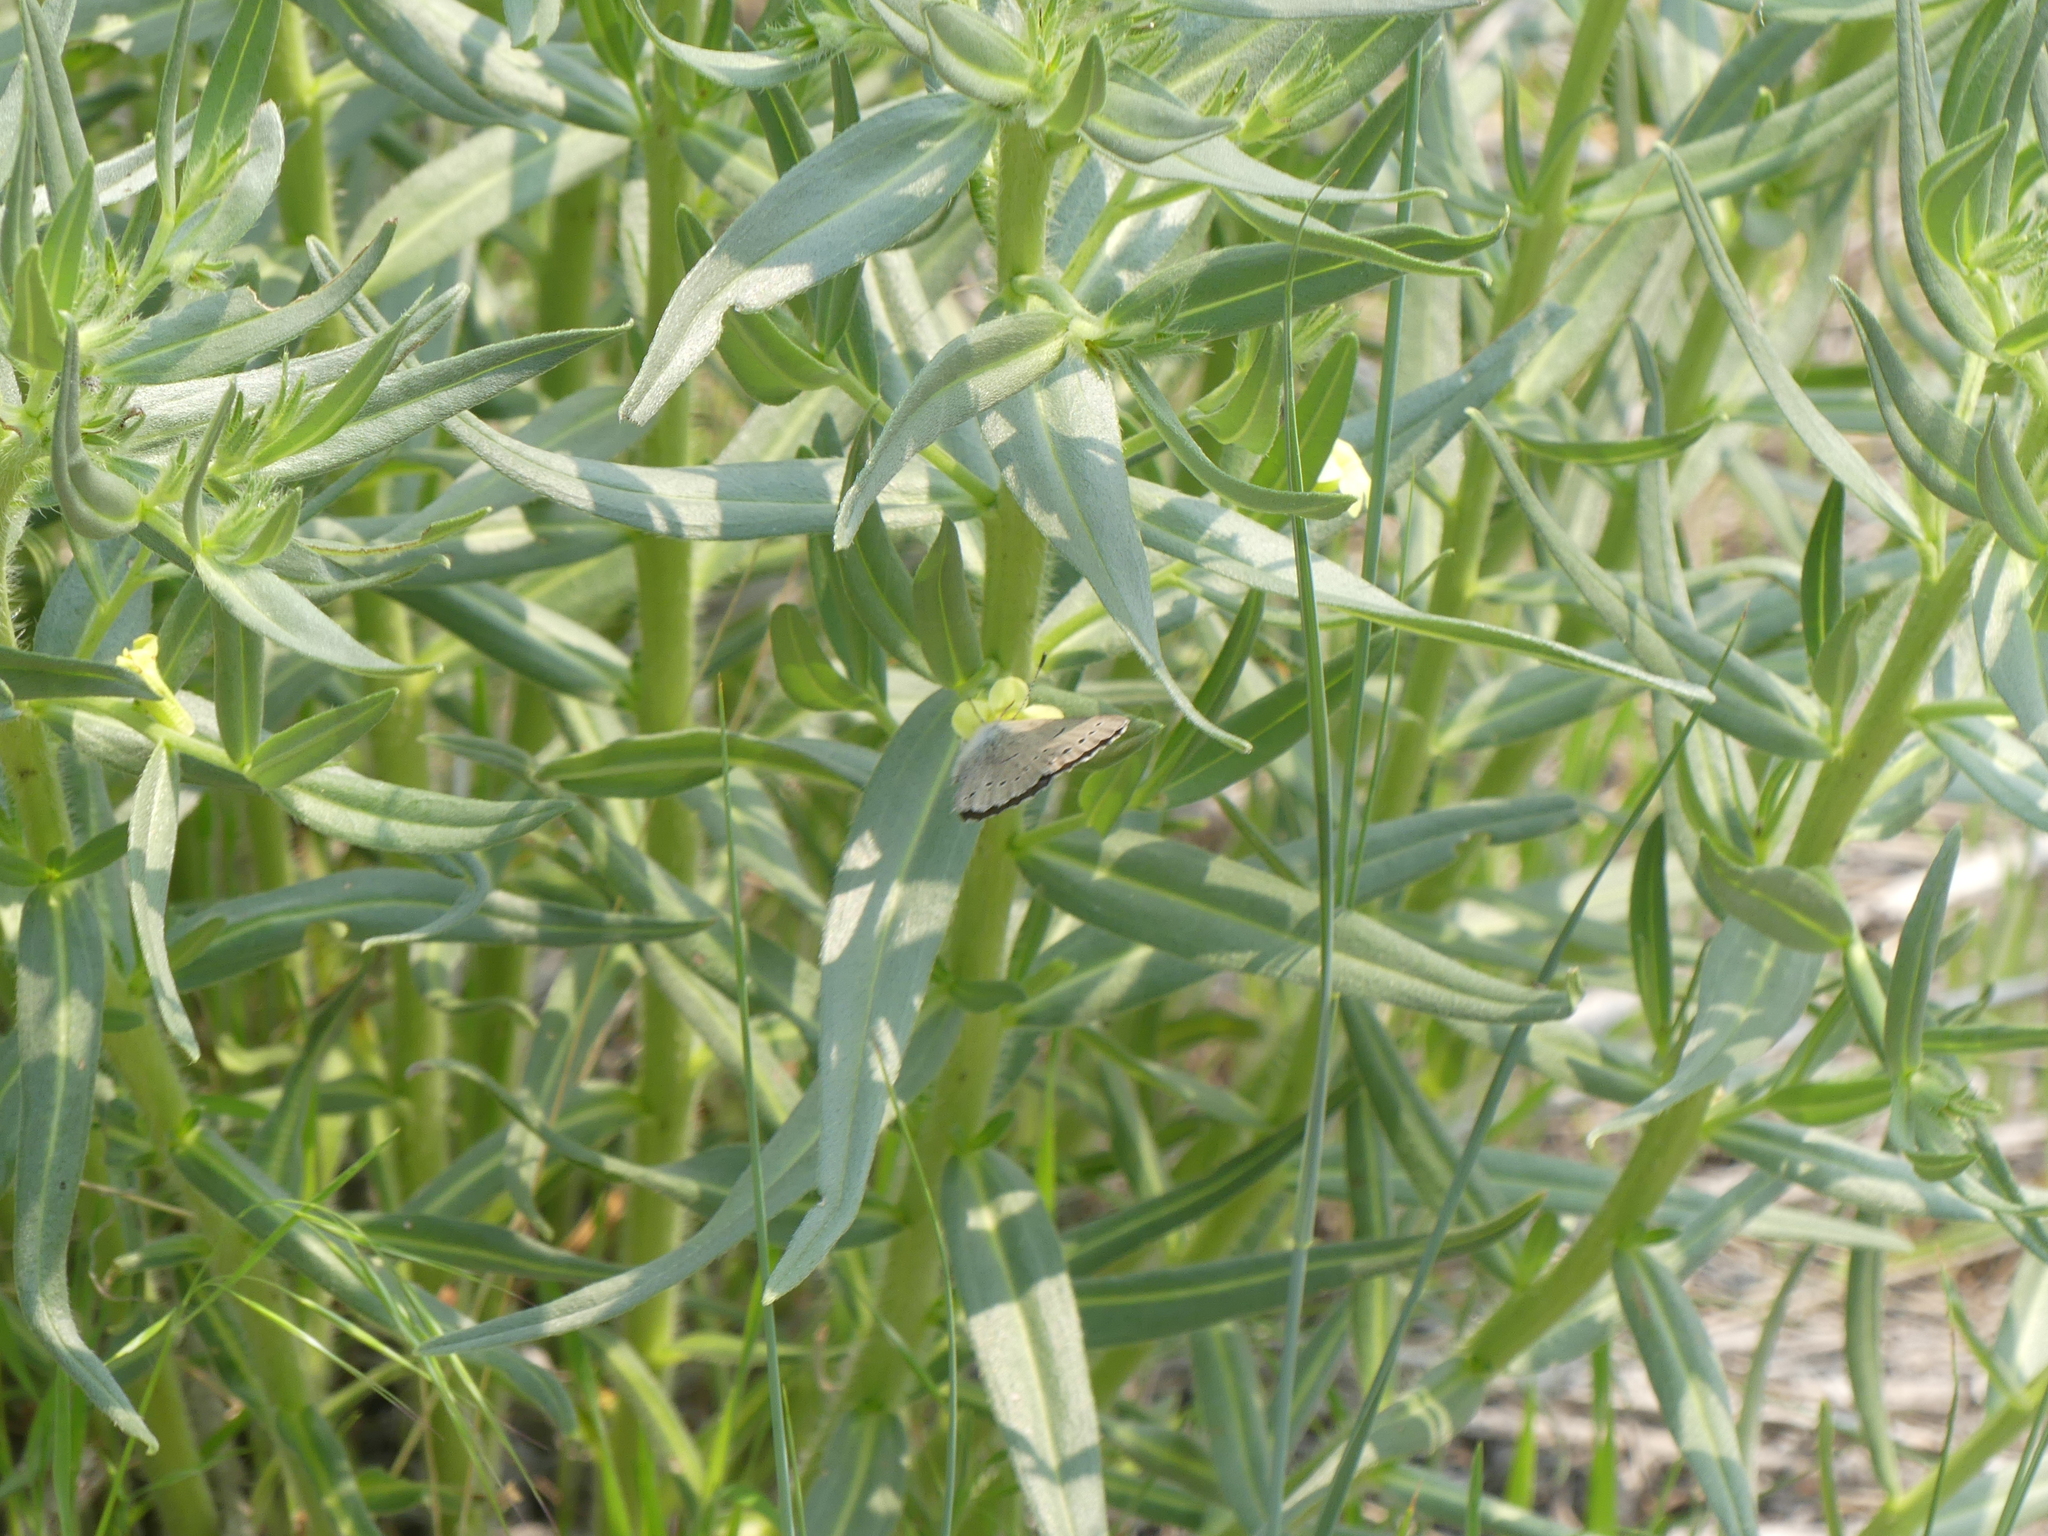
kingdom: Animalia
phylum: Arthropoda
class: Insecta
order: Lepidoptera
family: Lycaenidae
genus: Glaucopsyche
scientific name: Glaucopsyche lygdamus
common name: Silvery blue
